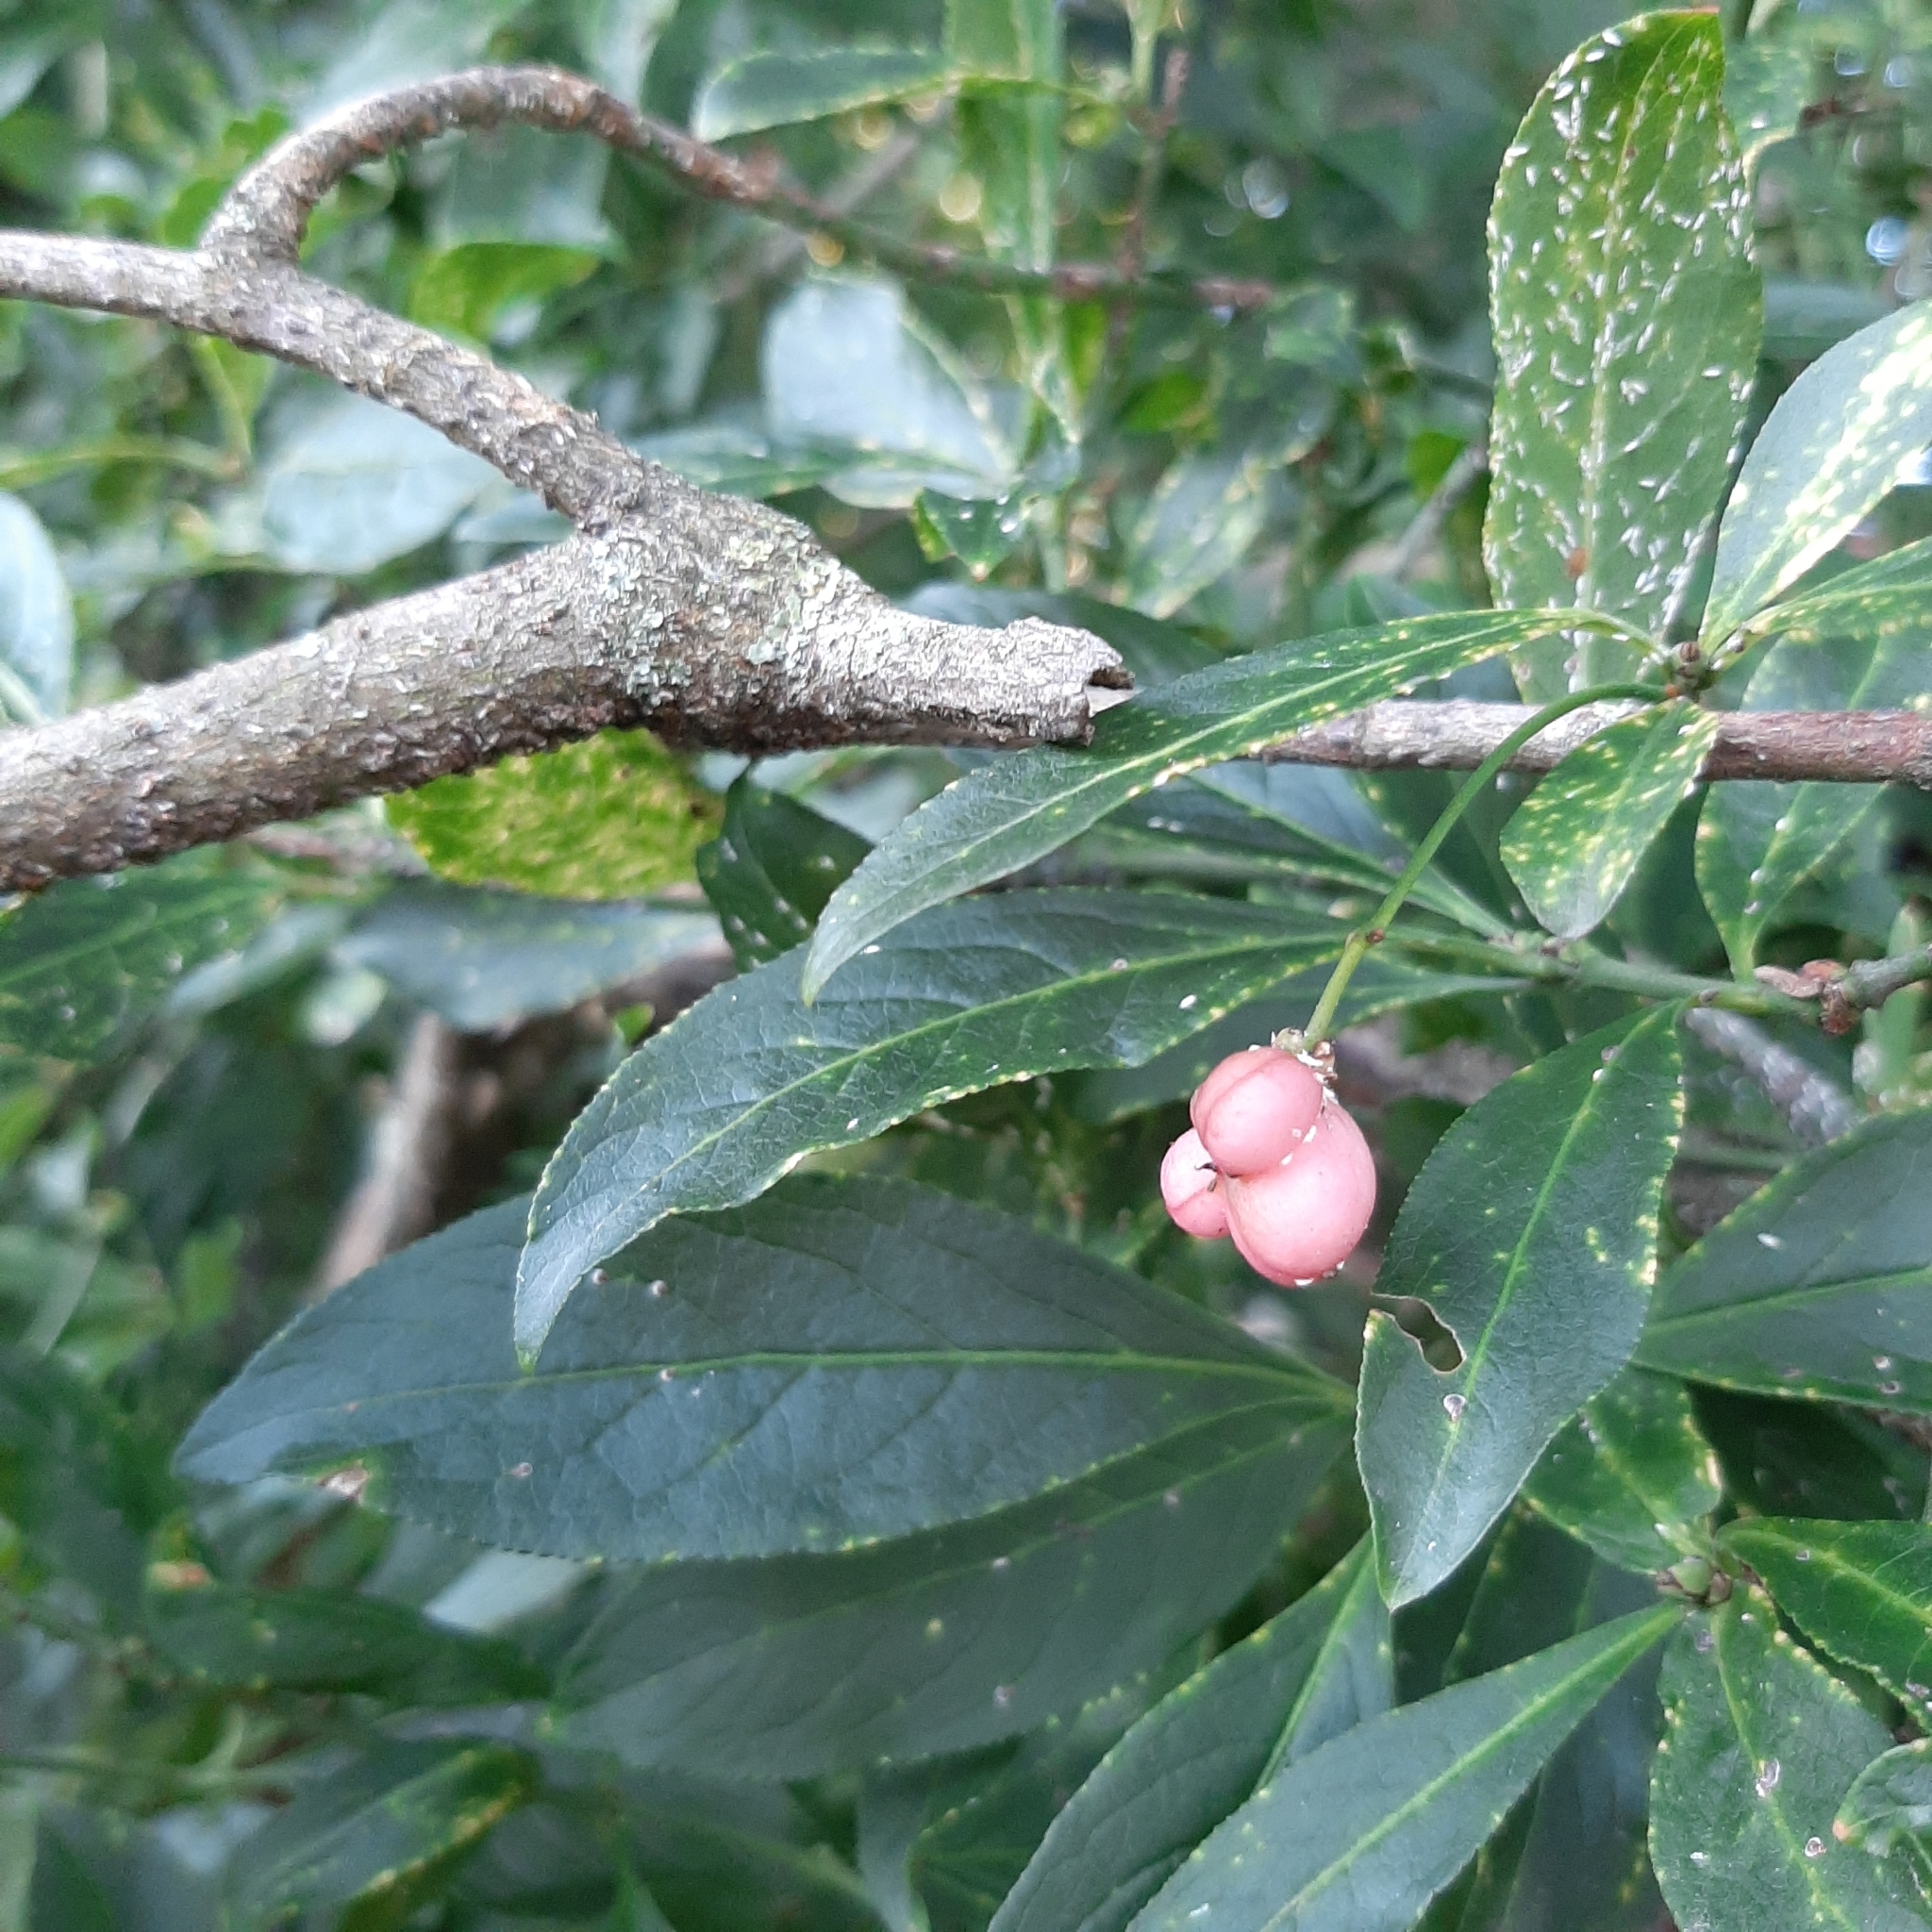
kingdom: Plantae
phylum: Tracheophyta
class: Magnoliopsida
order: Celastrales
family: Celastraceae
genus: Euonymus
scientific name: Euonymus europaeus
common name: Spindle
